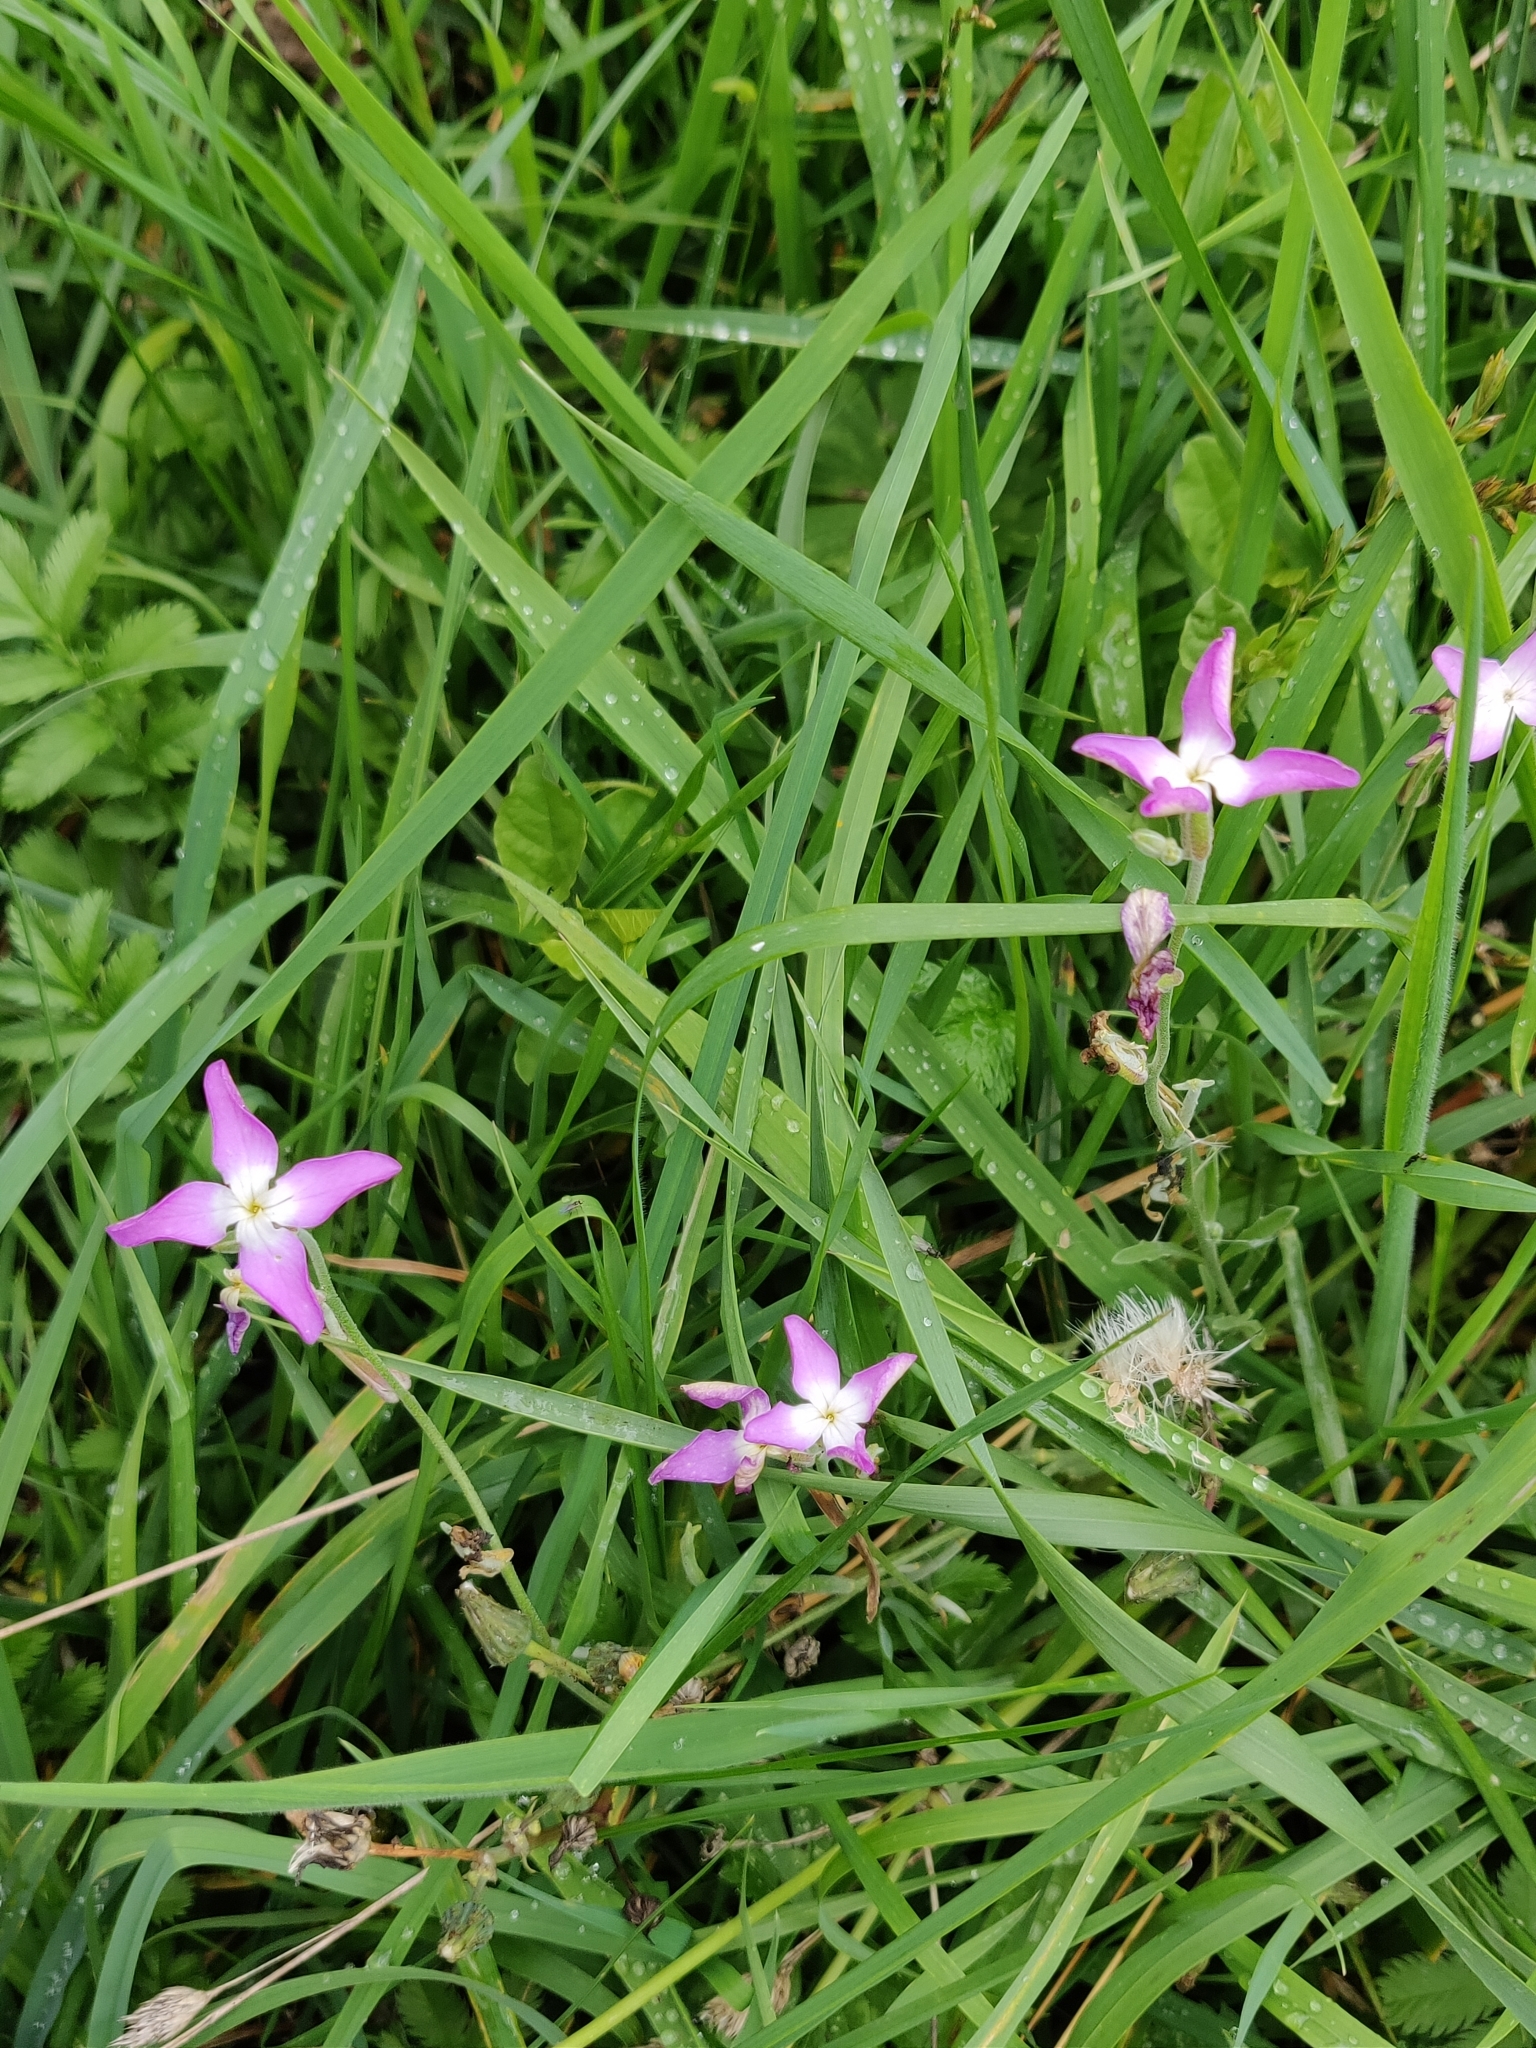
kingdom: Plantae
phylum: Tracheophyta
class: Magnoliopsida
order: Caryophyllales
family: Caryophyllaceae
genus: Eudianthe
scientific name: Eudianthe coeli-rosa
